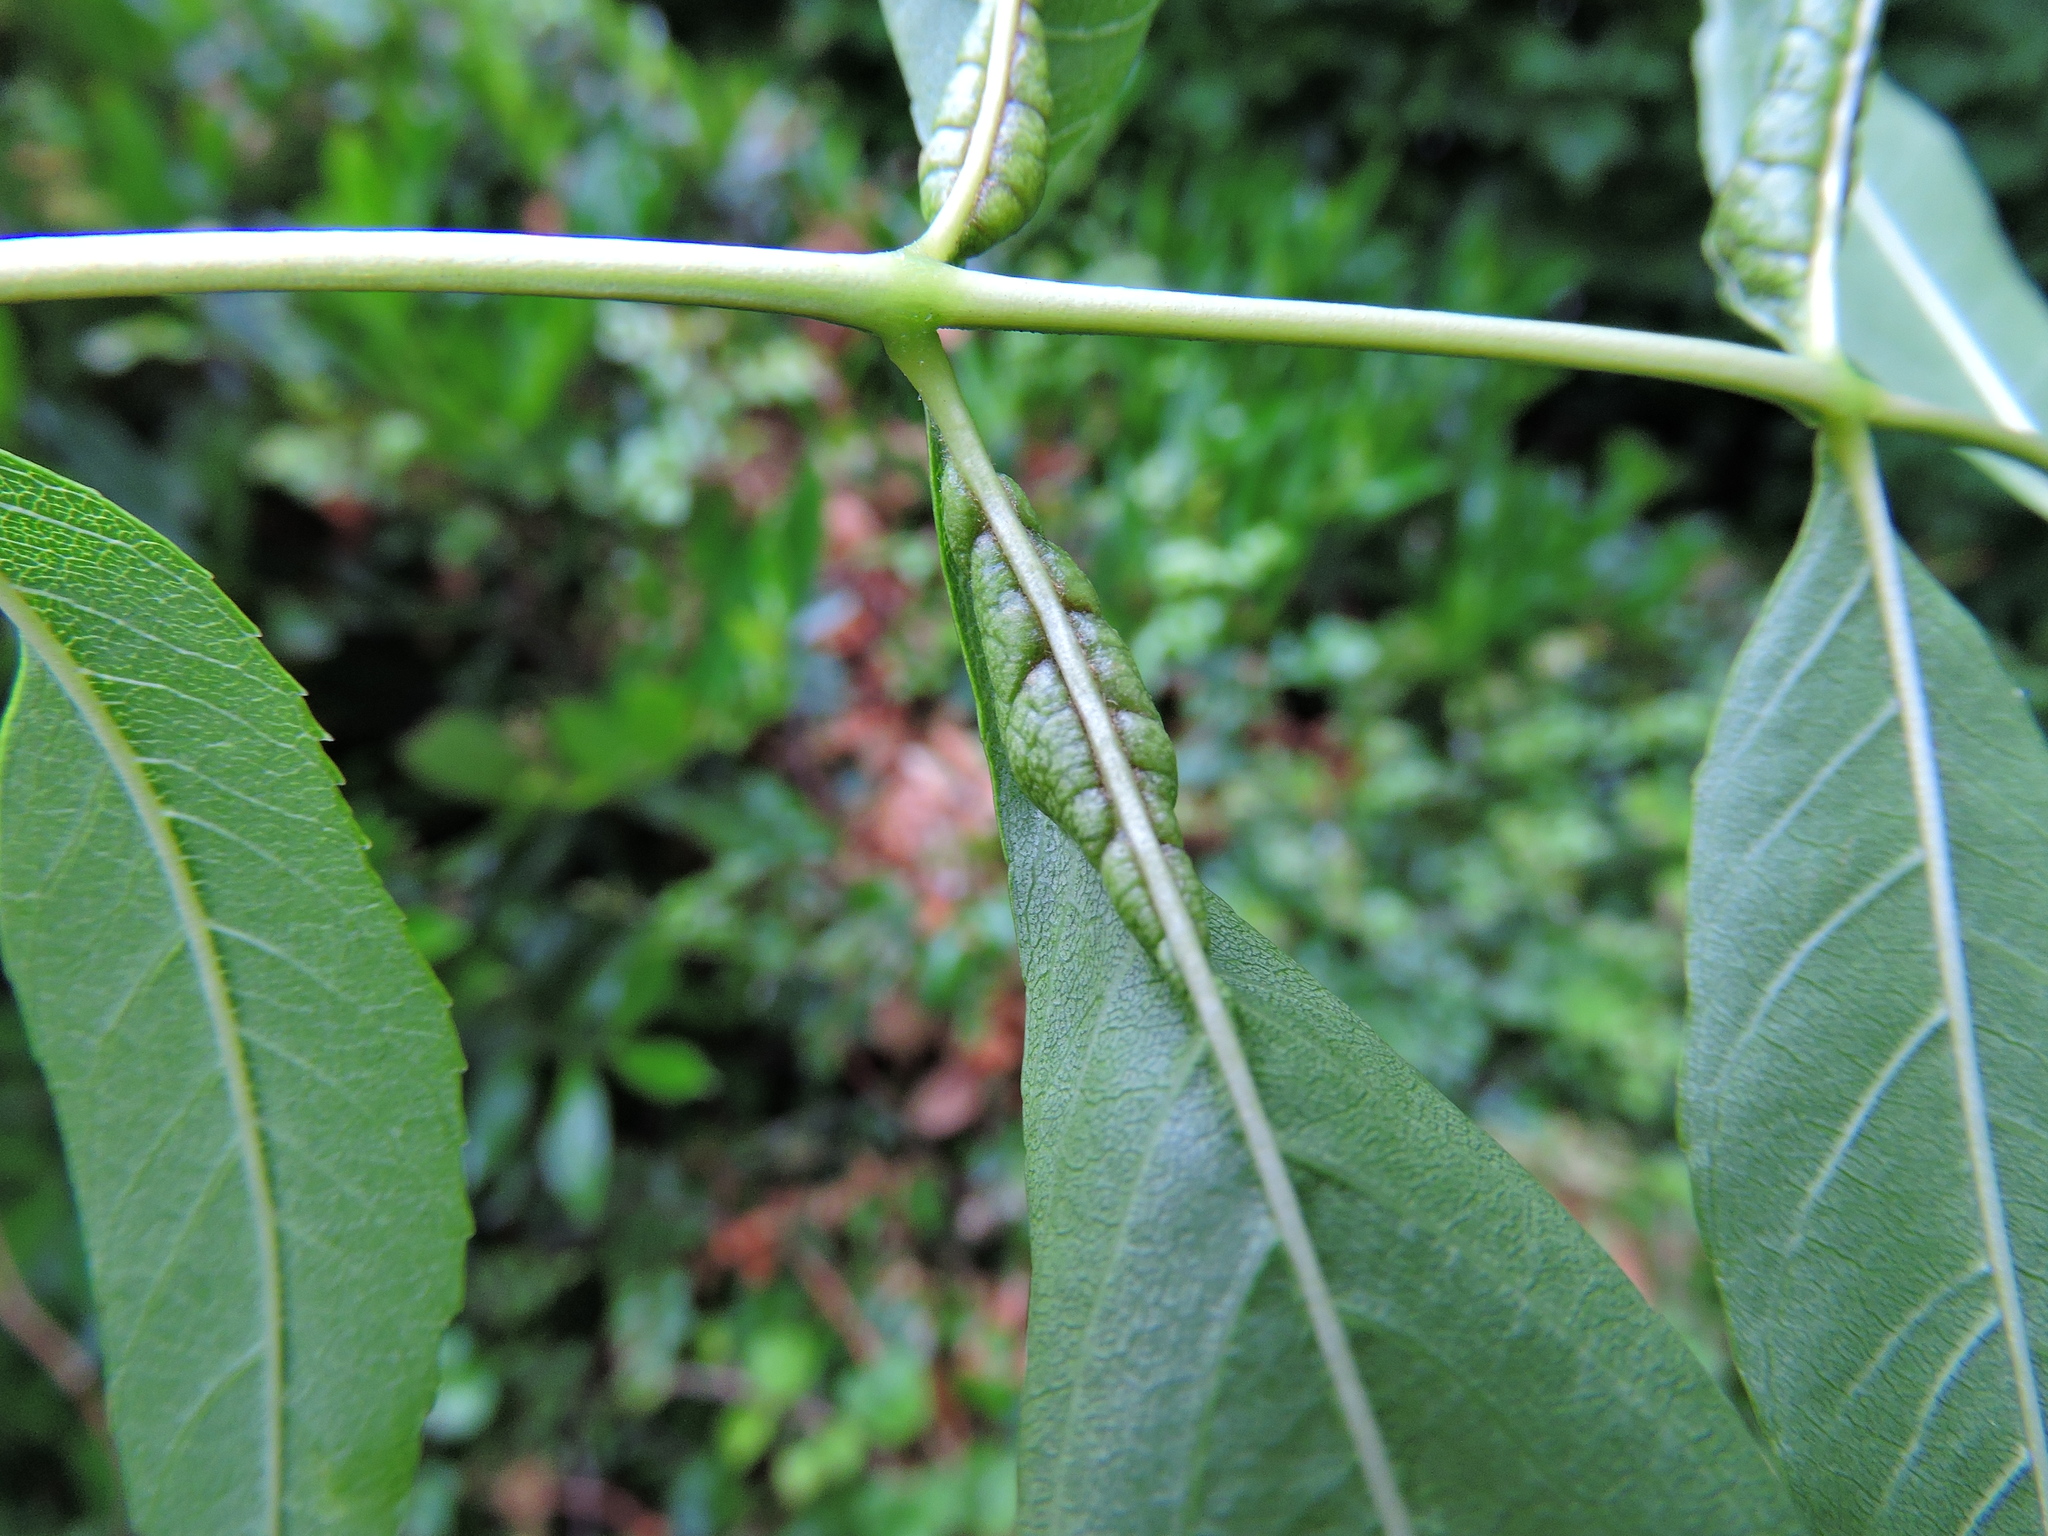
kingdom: Animalia
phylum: Arthropoda
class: Insecta
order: Diptera
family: Cecidomyiidae
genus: Dasineura
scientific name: Dasineura acrophila
